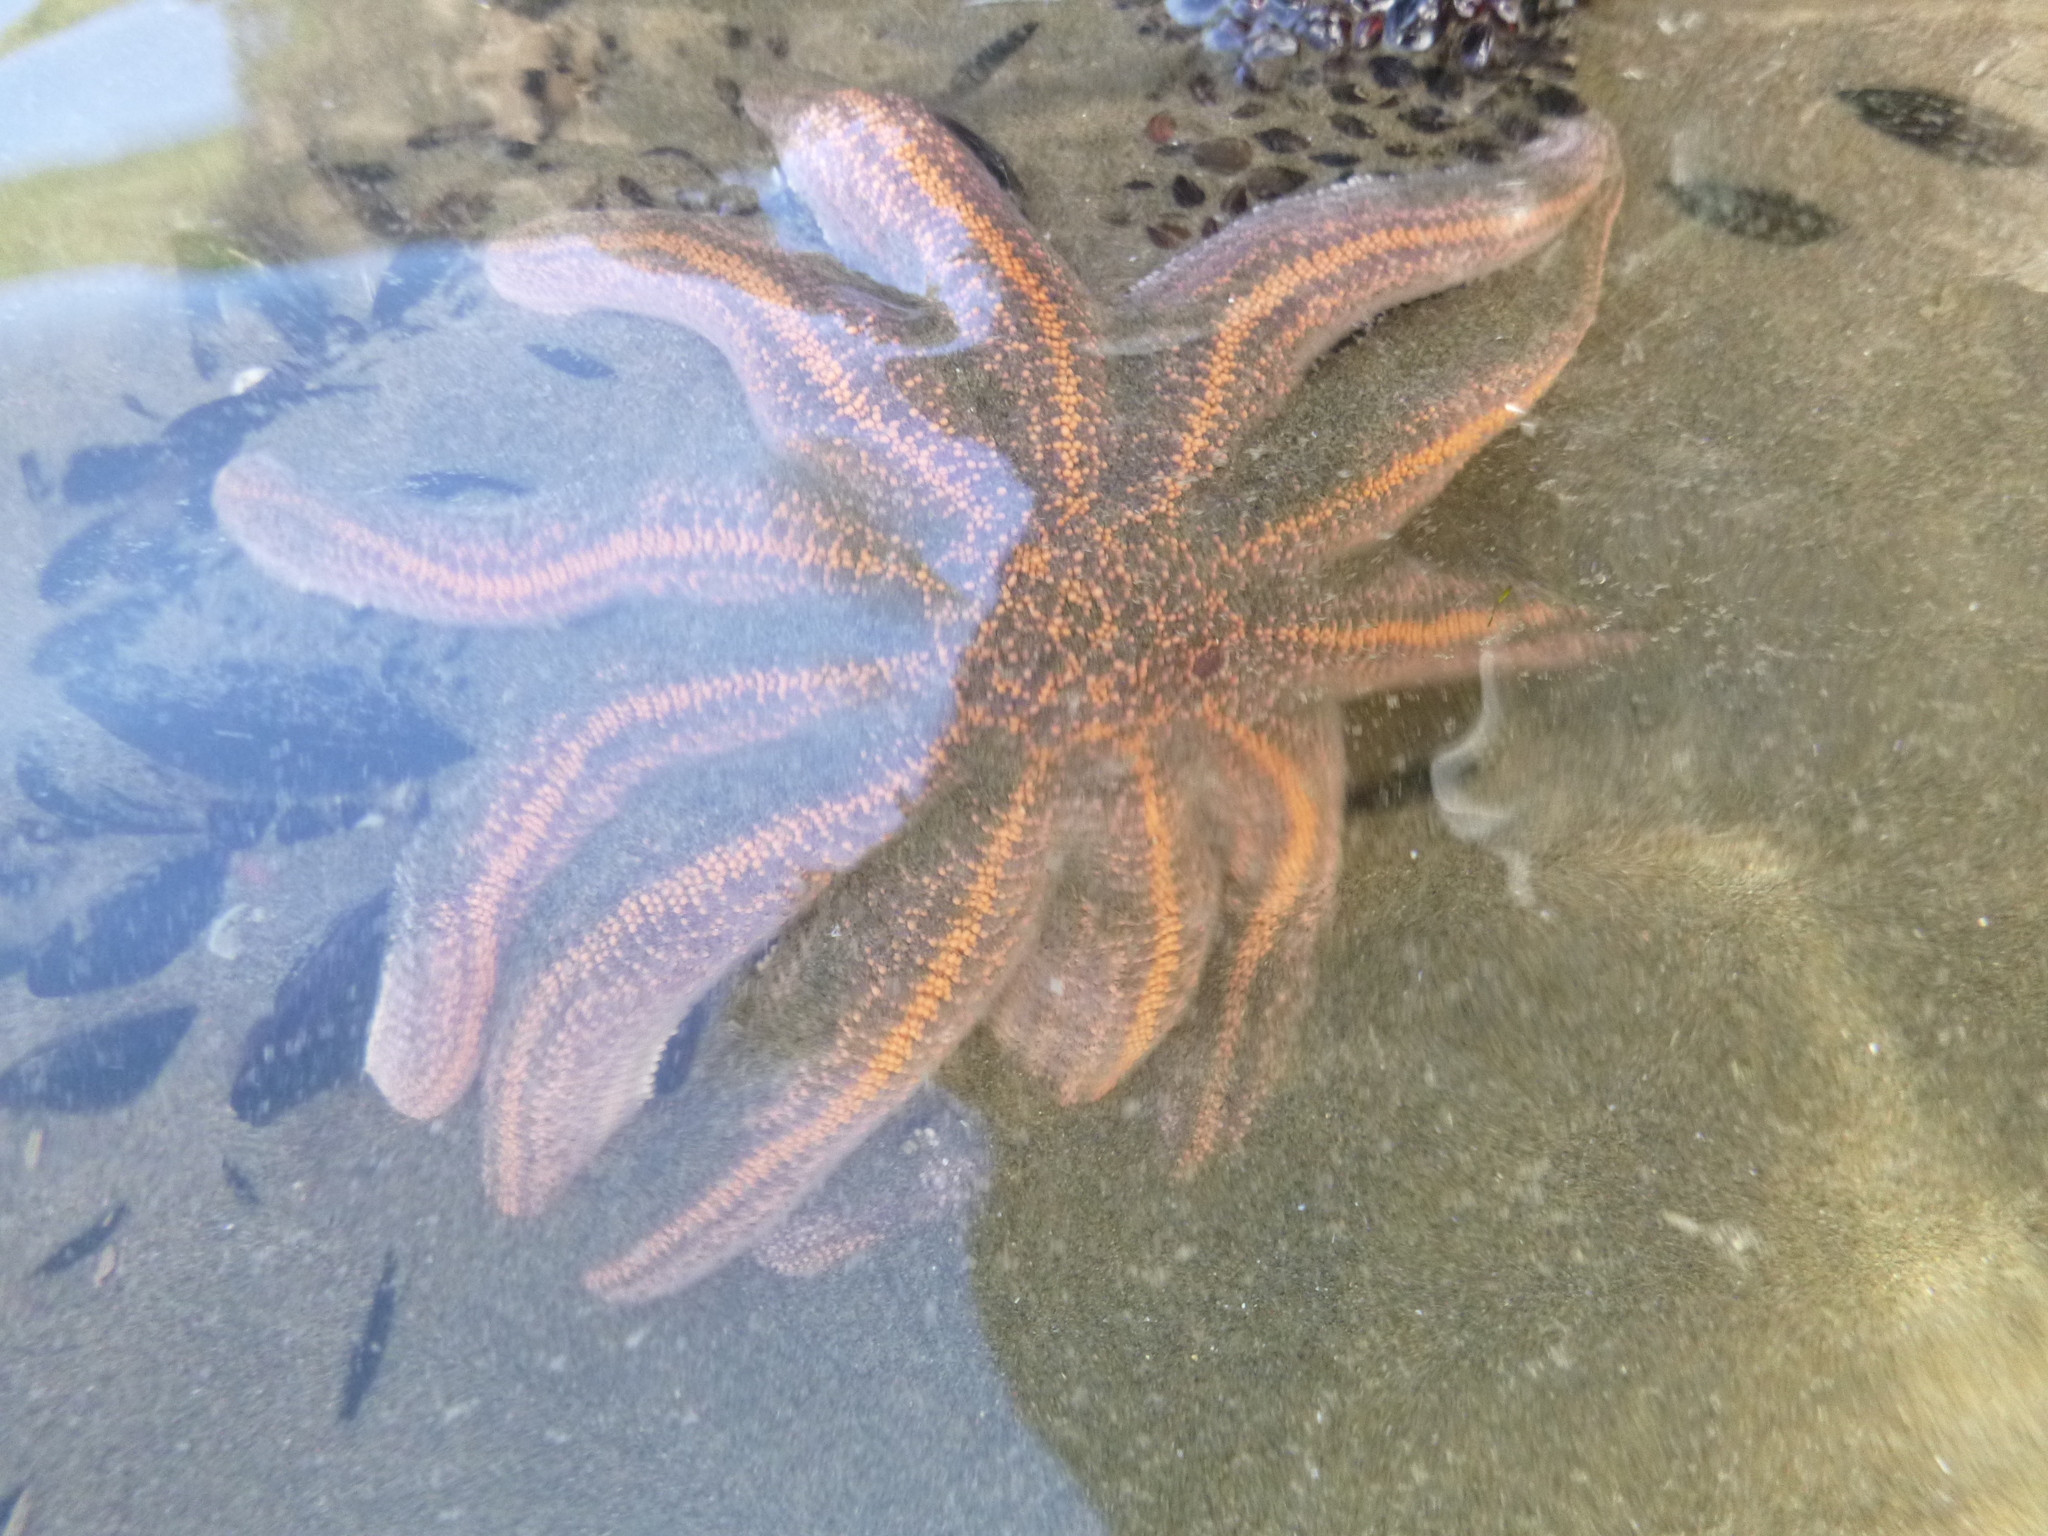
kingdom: Animalia
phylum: Echinodermata
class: Asteroidea
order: Forcipulatida
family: Stichasteridae
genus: Stichaster
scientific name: Stichaster australis
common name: Reef starfish
